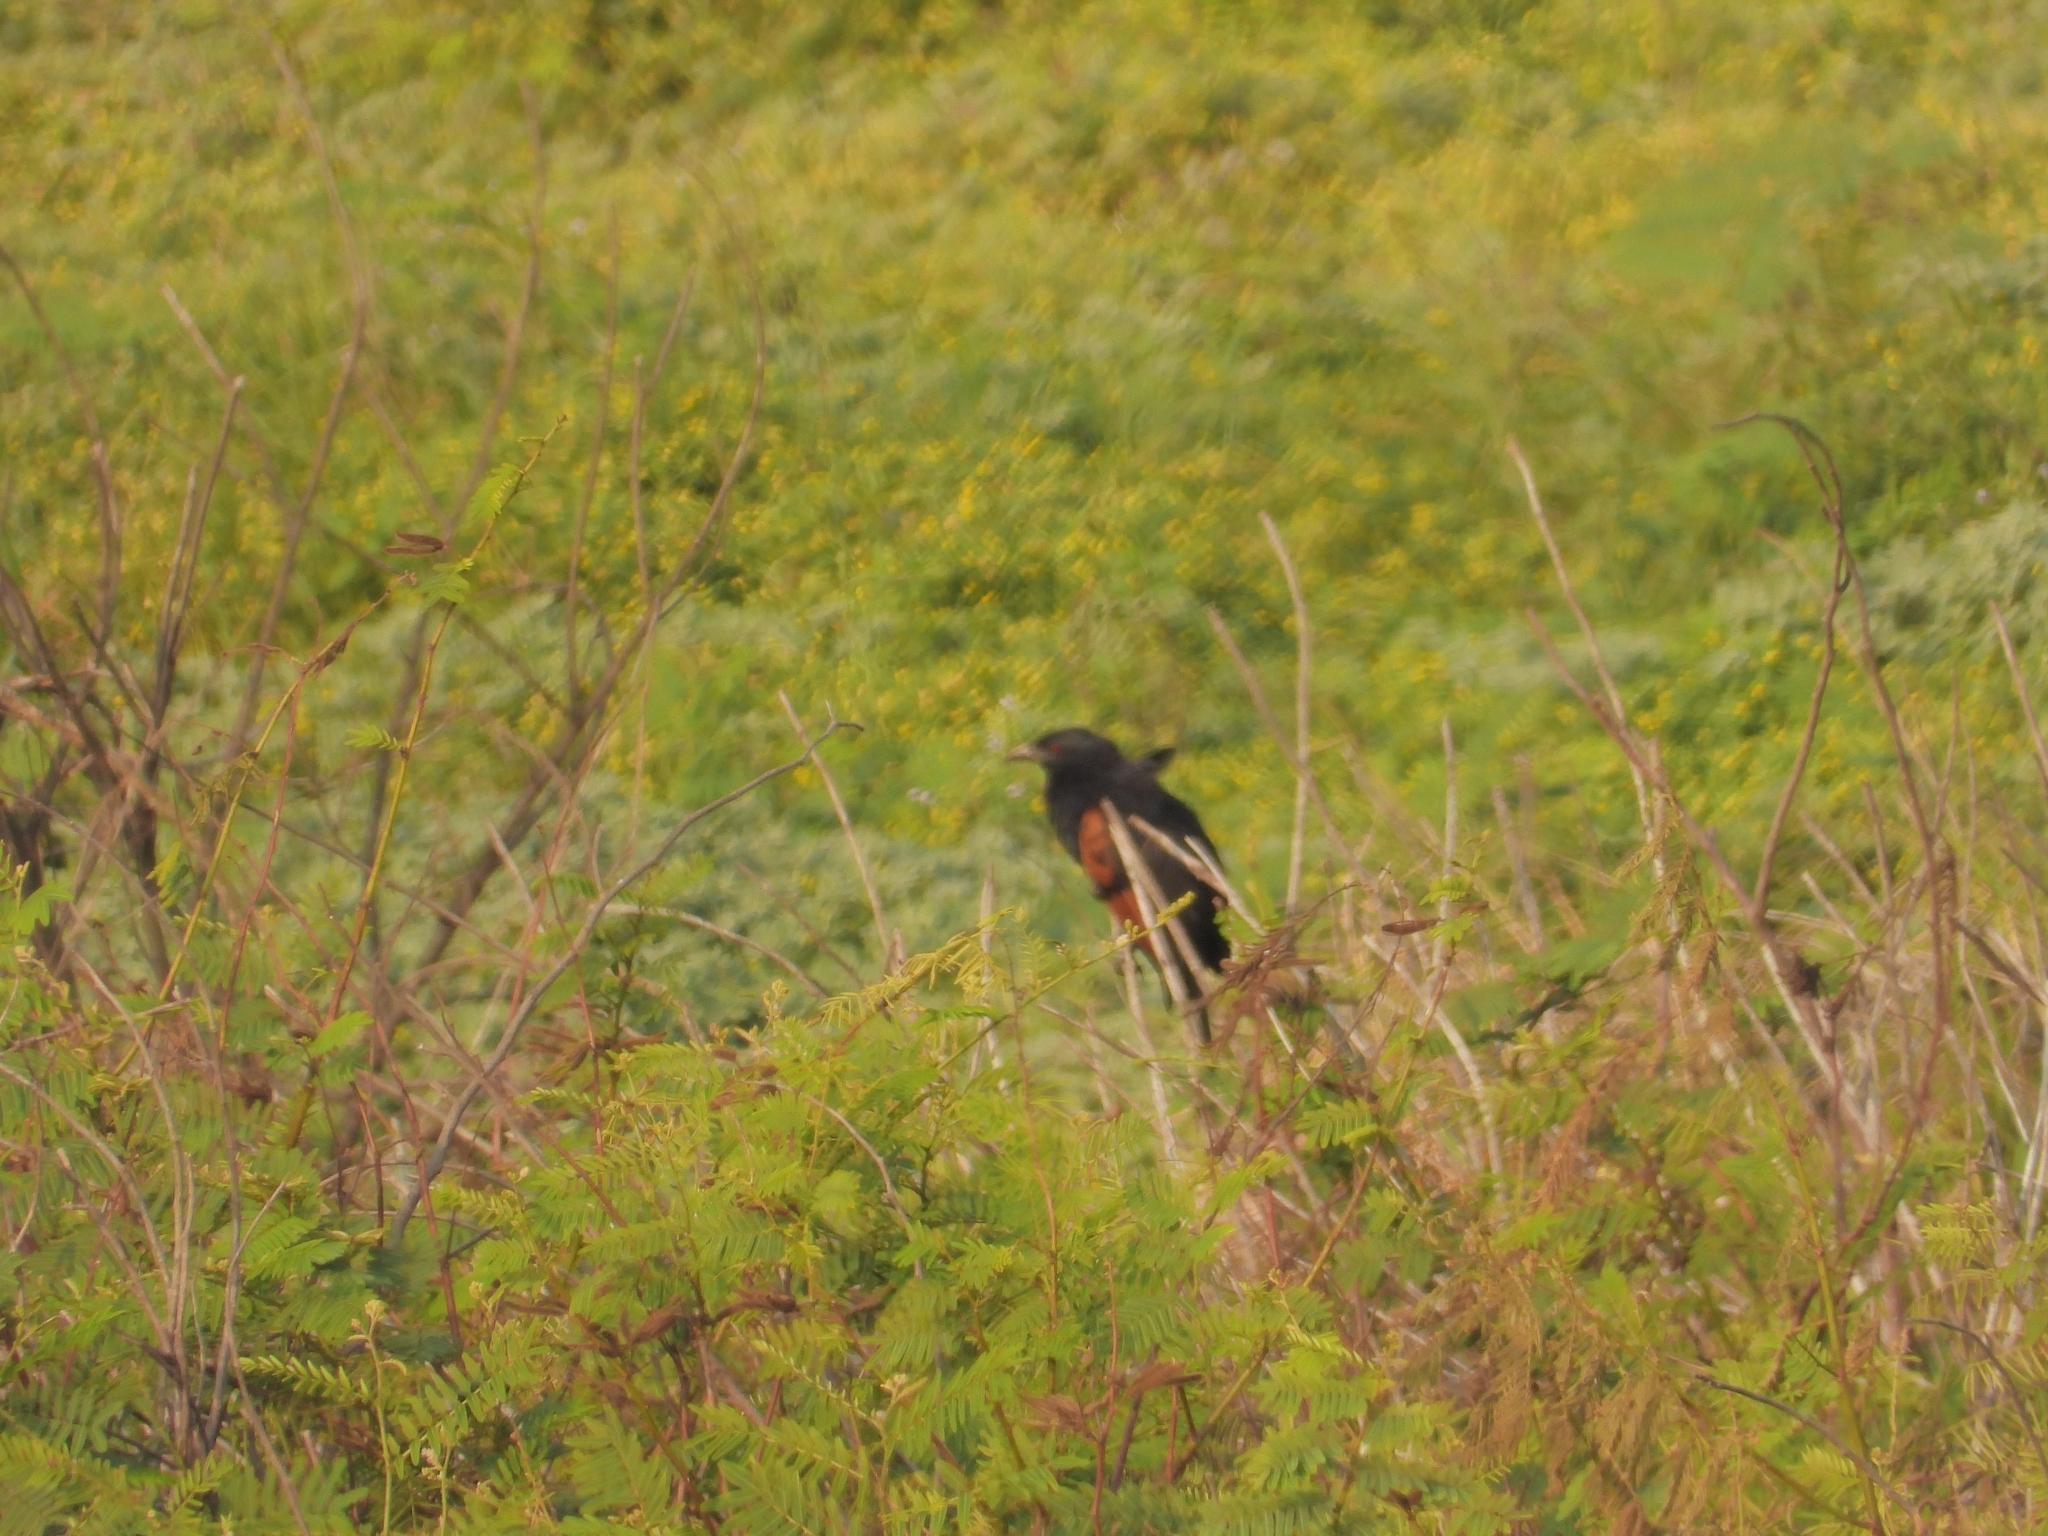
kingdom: Animalia
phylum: Chordata
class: Aves
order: Cuculiformes
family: Cuculidae
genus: Centropus
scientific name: Centropus nigrorufus
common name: Sunda coucal
